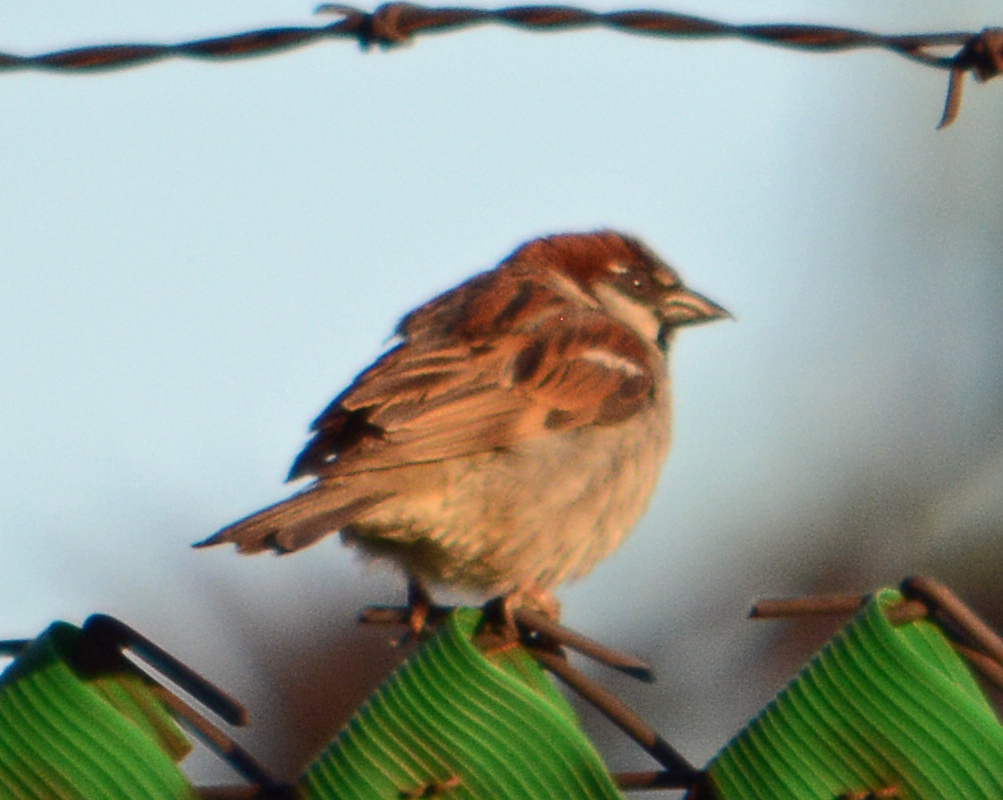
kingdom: Animalia
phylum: Chordata
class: Aves
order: Passeriformes
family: Passeridae
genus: Passer
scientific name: Passer domesticus
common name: House sparrow
